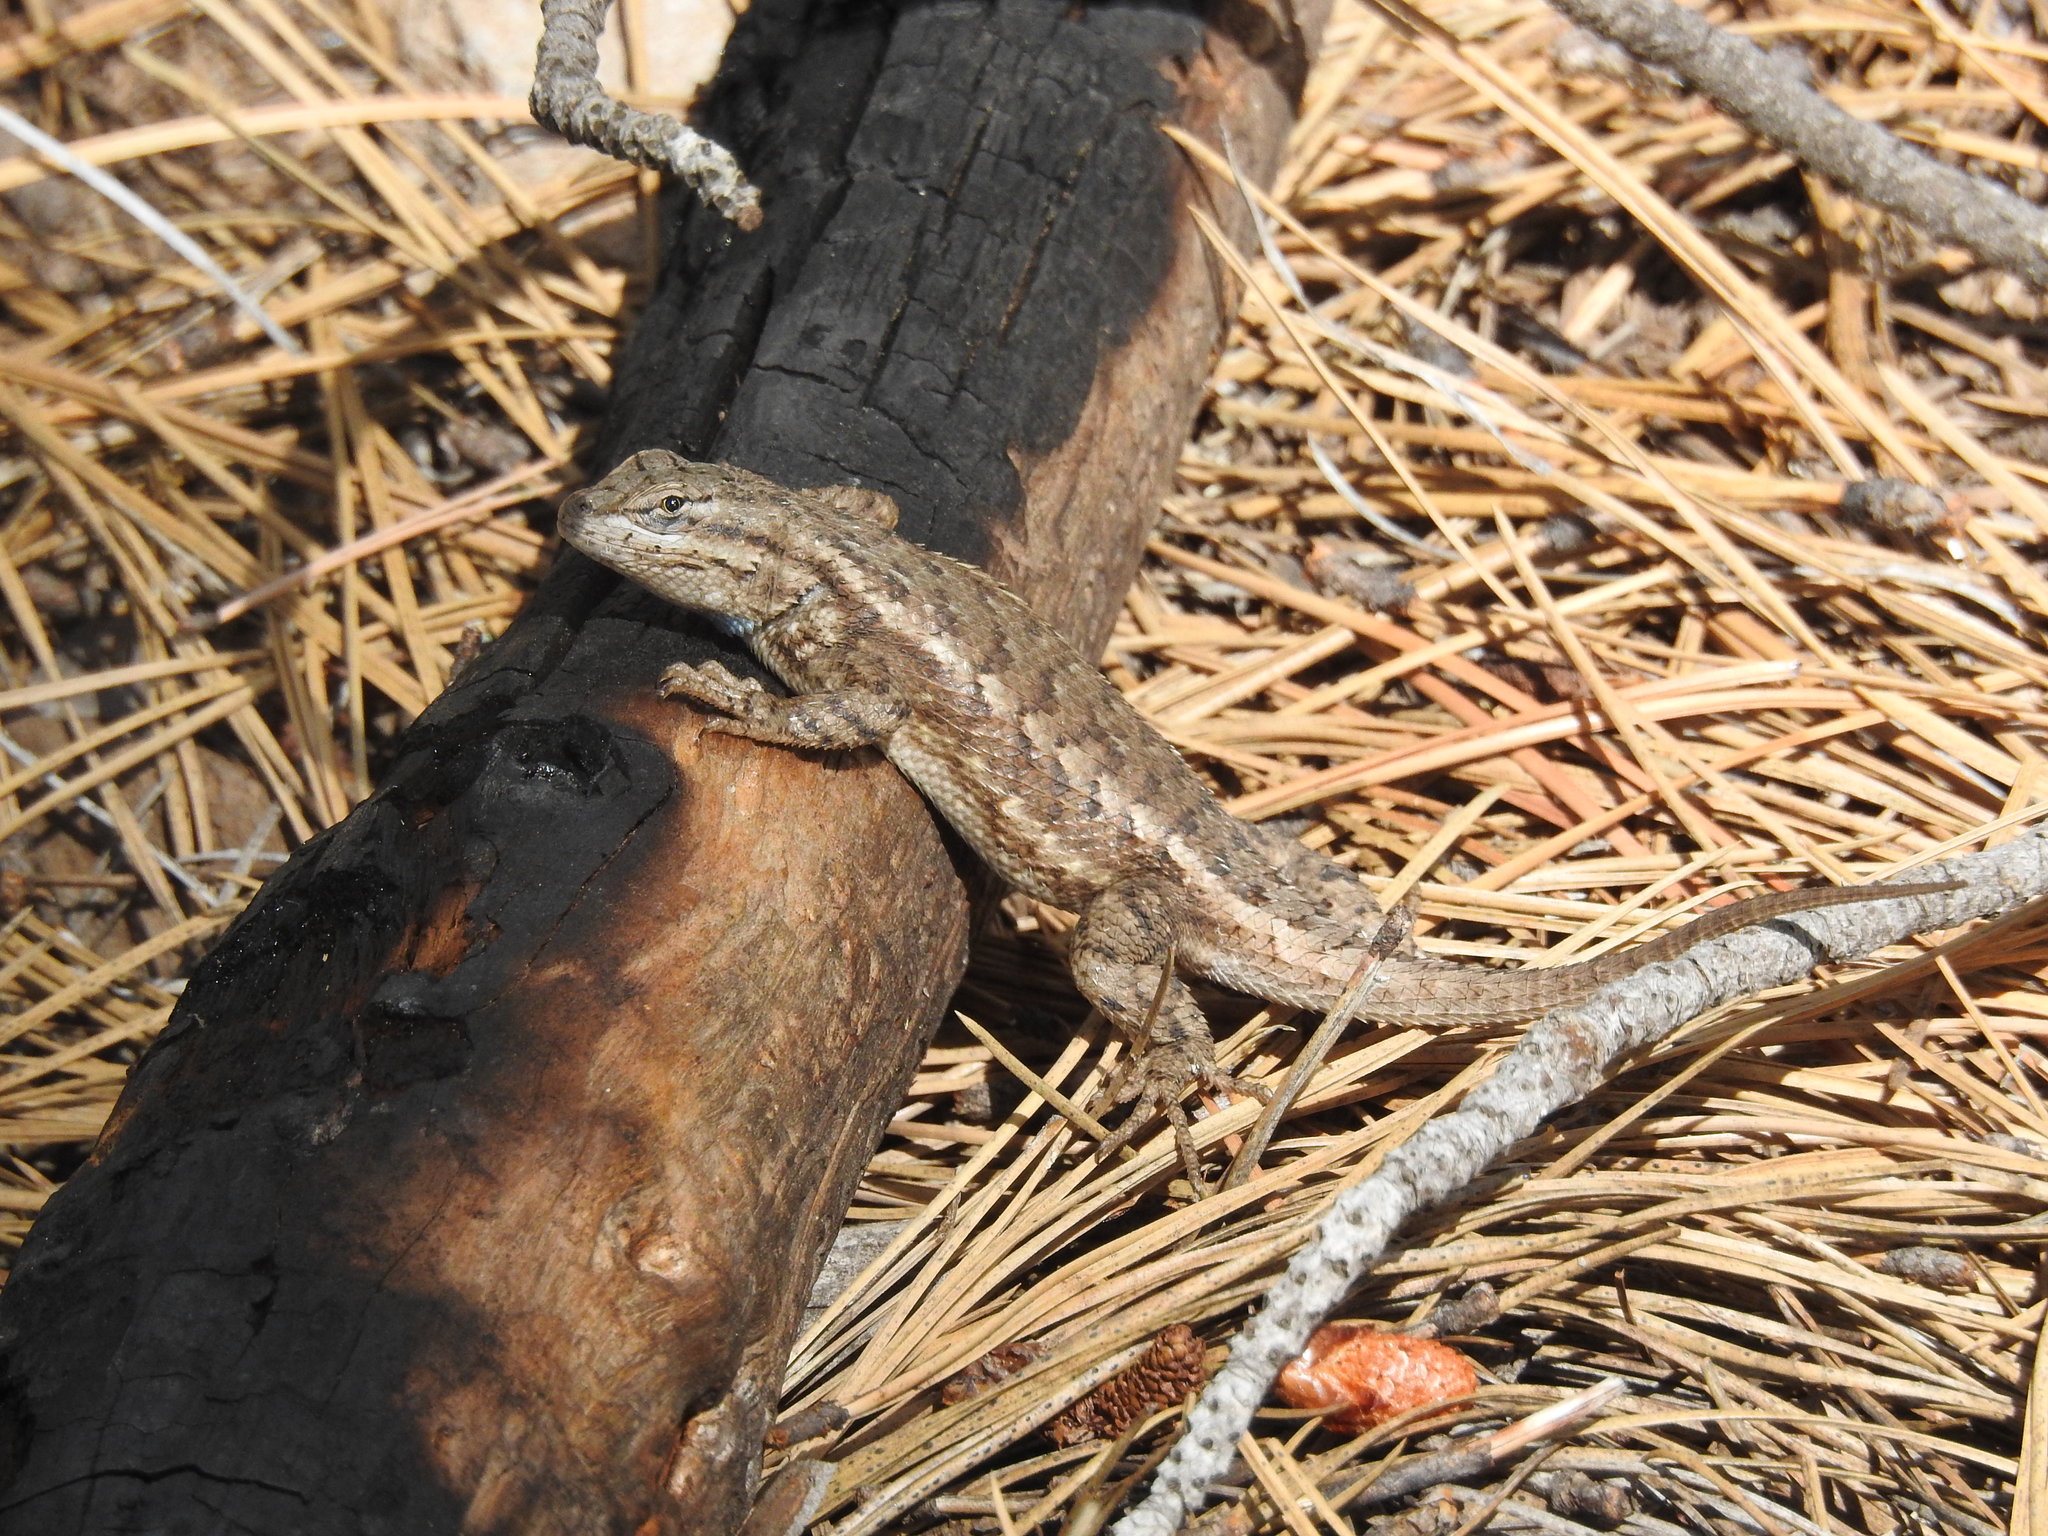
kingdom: Animalia
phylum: Chordata
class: Squamata
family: Phrynosomatidae
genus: Sceloporus
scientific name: Sceloporus tristichus
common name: Plateau fence lizard
